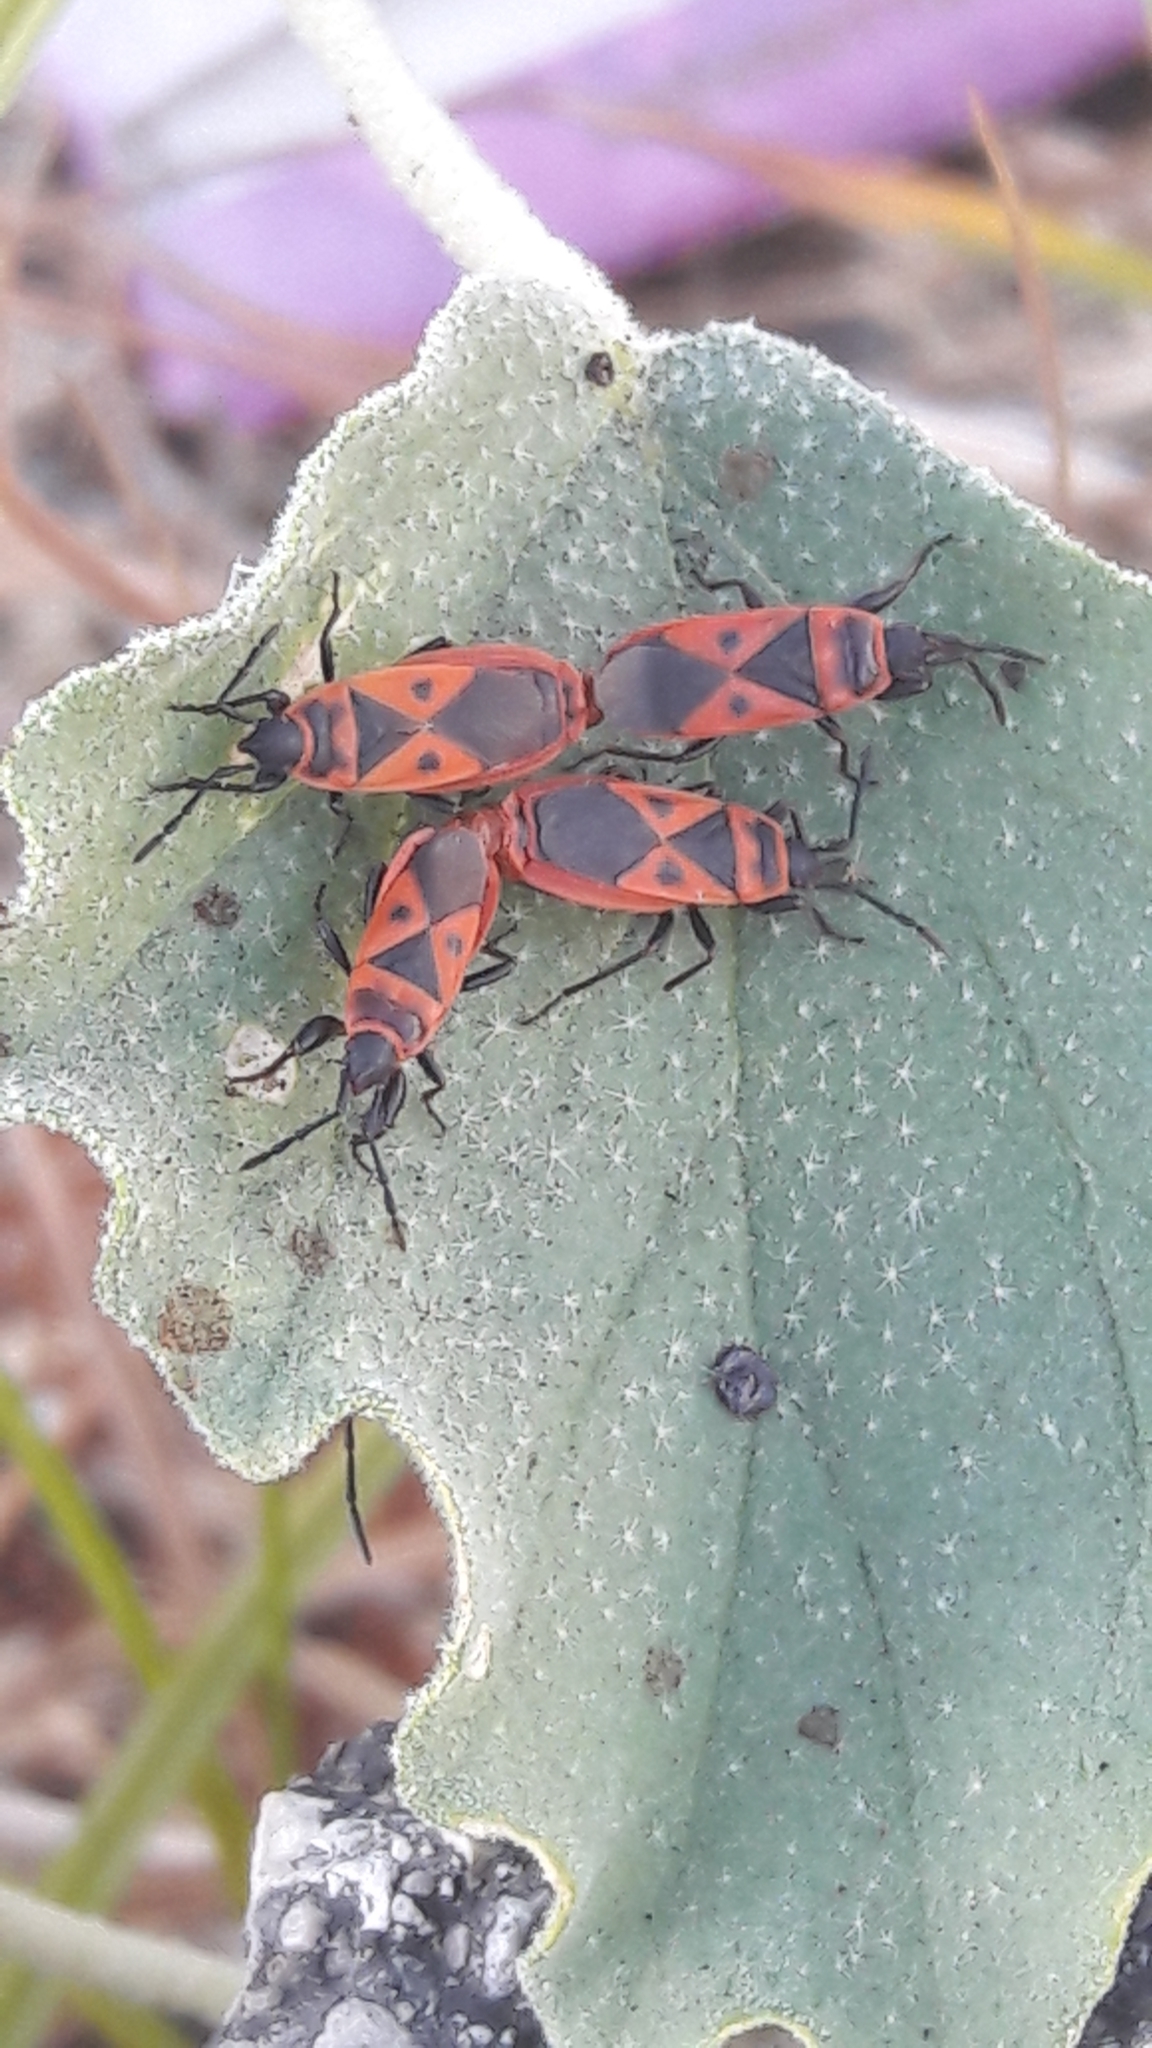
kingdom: Animalia
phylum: Arthropoda
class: Insecta
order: Hemiptera
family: Pyrrhocoridae
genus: Scantius
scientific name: Scantius aegyptius
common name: Red bug
